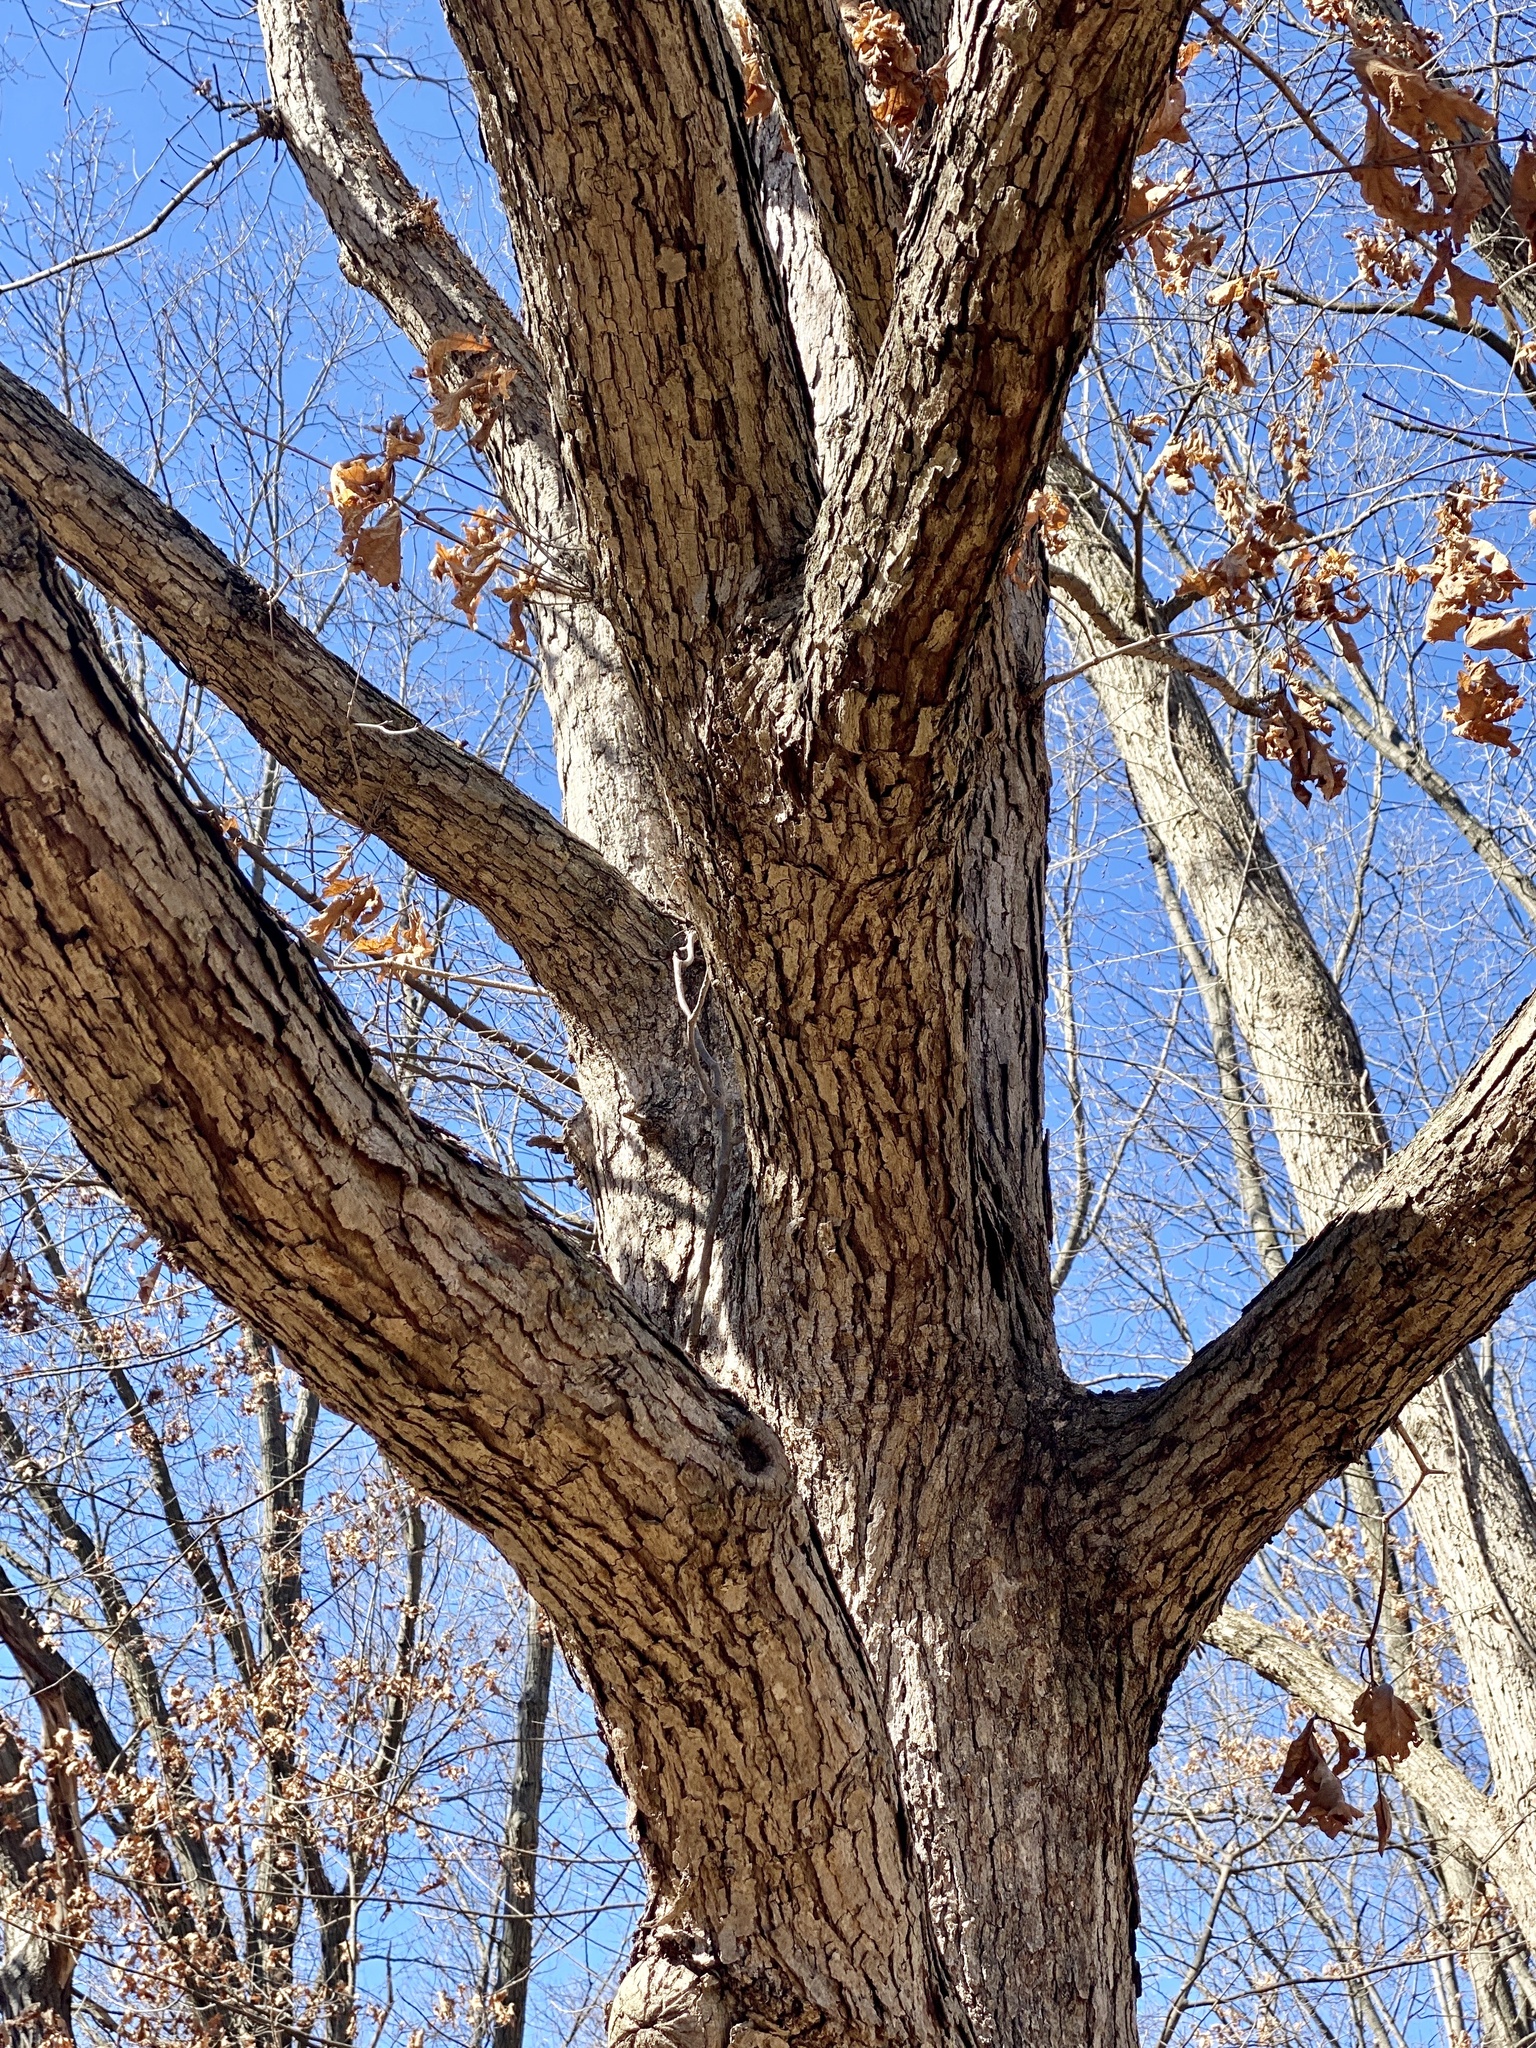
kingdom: Plantae
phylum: Tracheophyta
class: Magnoliopsida
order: Fagales
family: Fagaceae
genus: Quercus
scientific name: Quercus alba
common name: White oak
